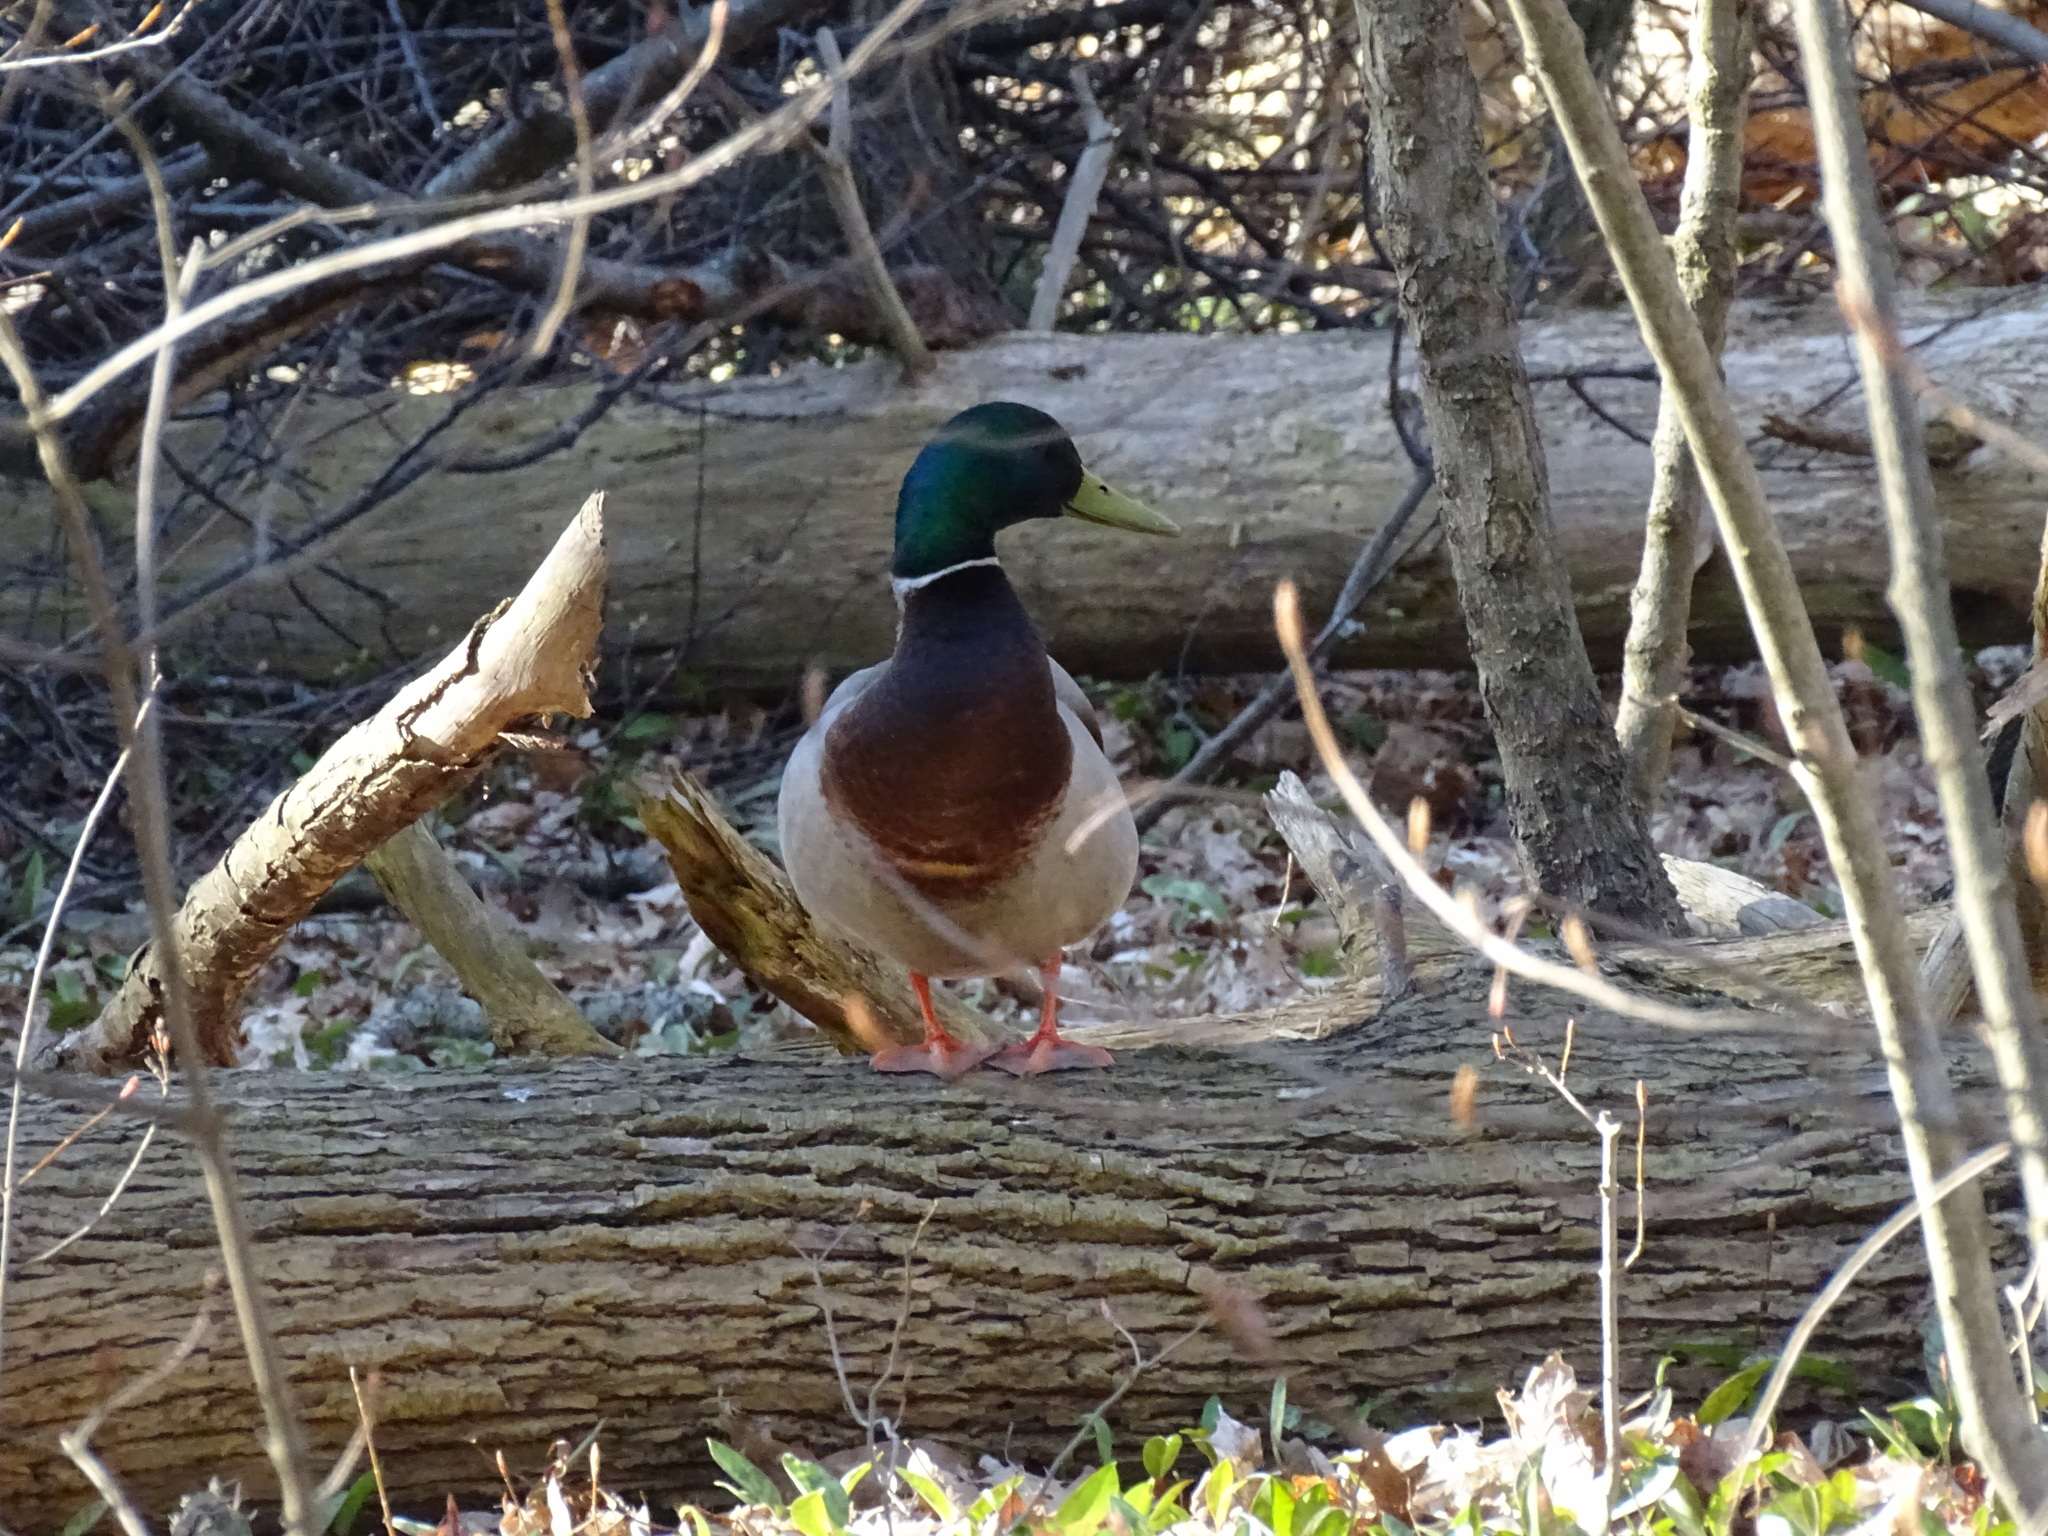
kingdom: Animalia
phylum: Chordata
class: Aves
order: Anseriformes
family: Anatidae
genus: Anas
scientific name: Anas platyrhynchos
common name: Mallard
